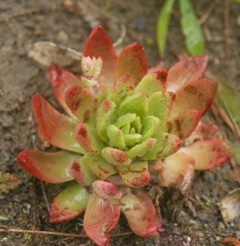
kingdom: Plantae
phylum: Tracheophyta
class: Magnoliopsida
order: Saxifragales
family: Crassulaceae
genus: Dudleya
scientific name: Dudleya farinosa
